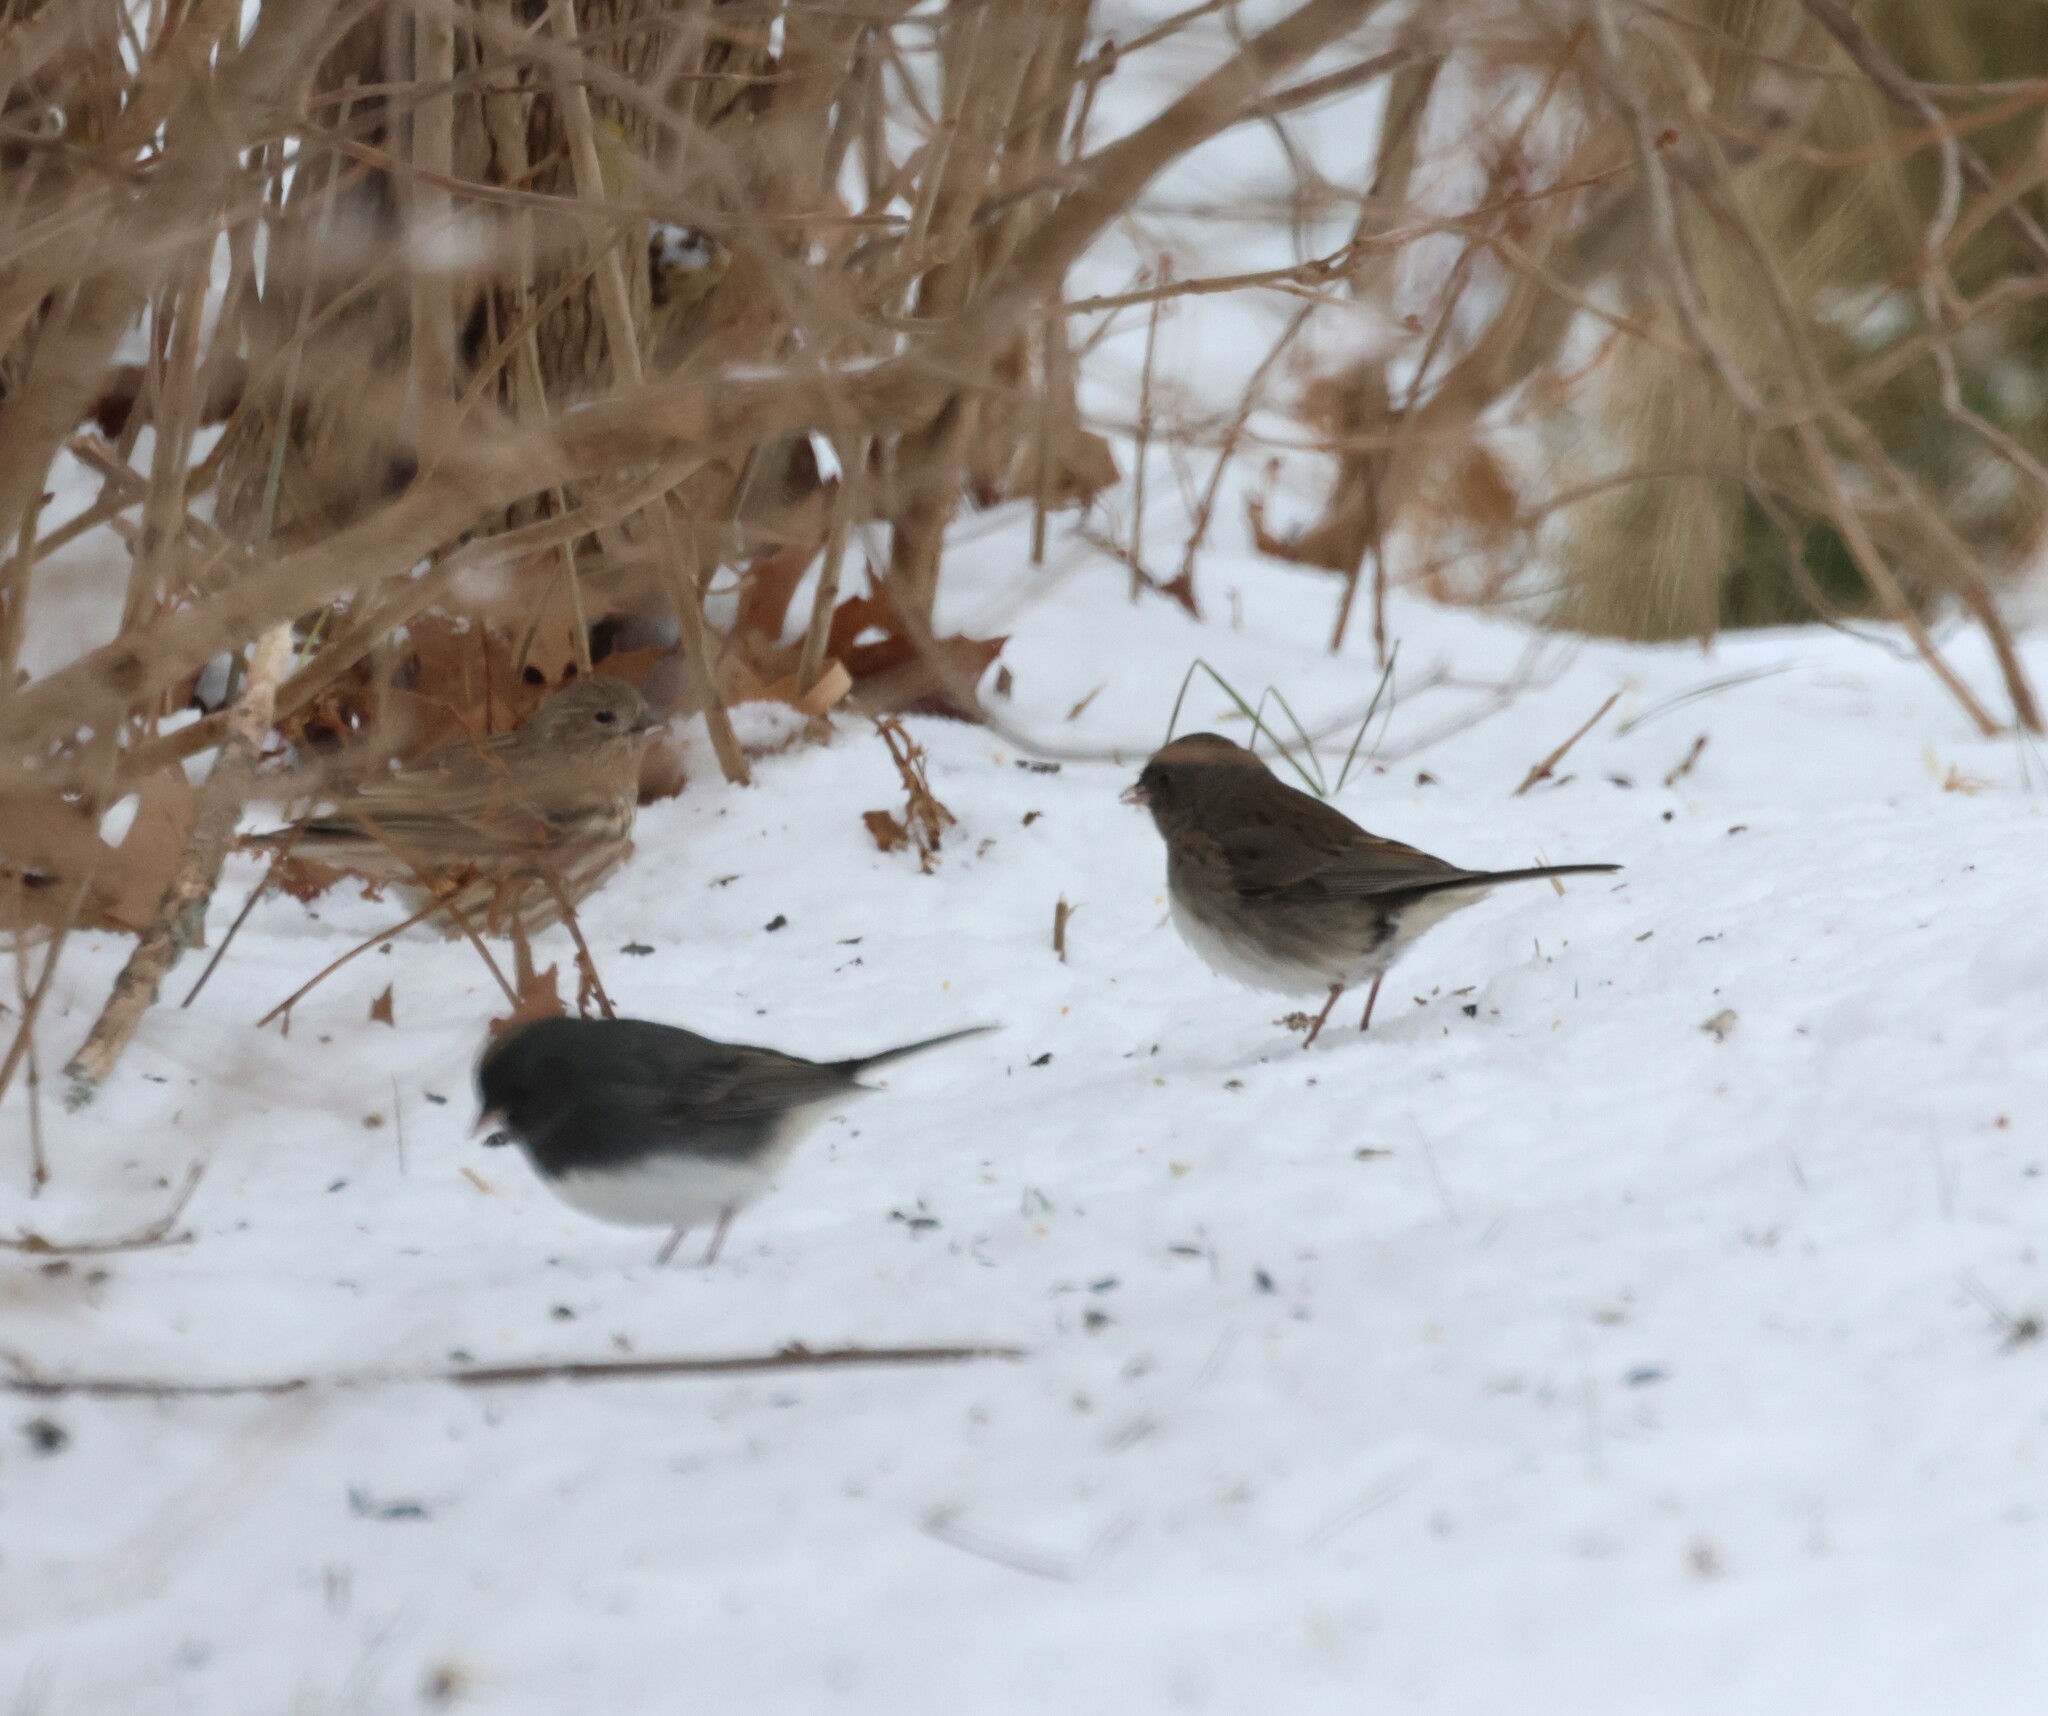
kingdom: Animalia
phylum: Chordata
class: Aves
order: Passeriformes
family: Passerellidae
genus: Junco
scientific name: Junco hyemalis
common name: Dark-eyed junco
